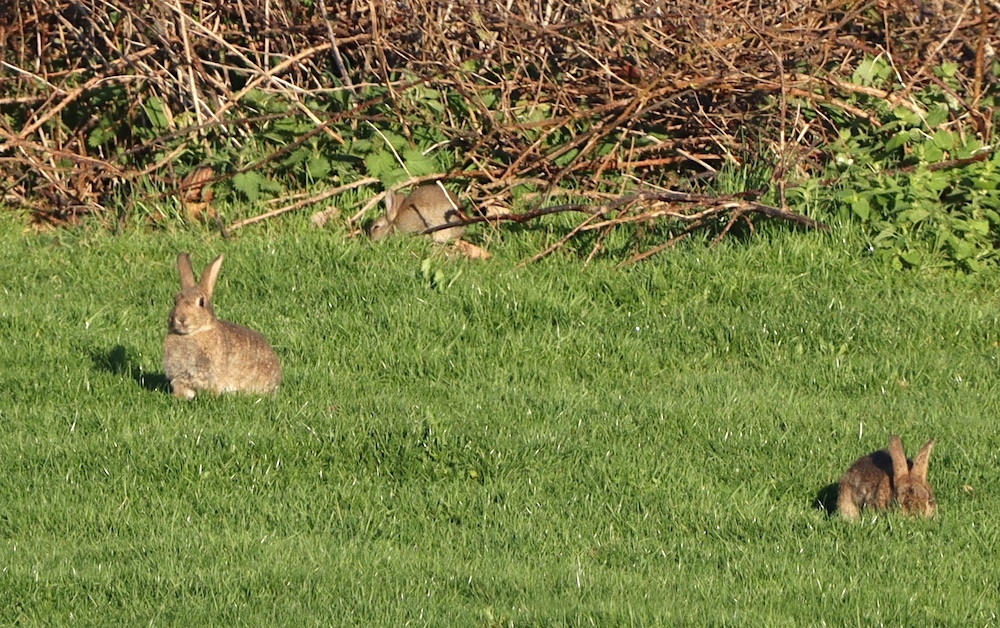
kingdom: Animalia
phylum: Chordata
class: Mammalia
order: Lagomorpha
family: Leporidae
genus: Oryctolagus
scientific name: Oryctolagus cuniculus
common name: European rabbit
